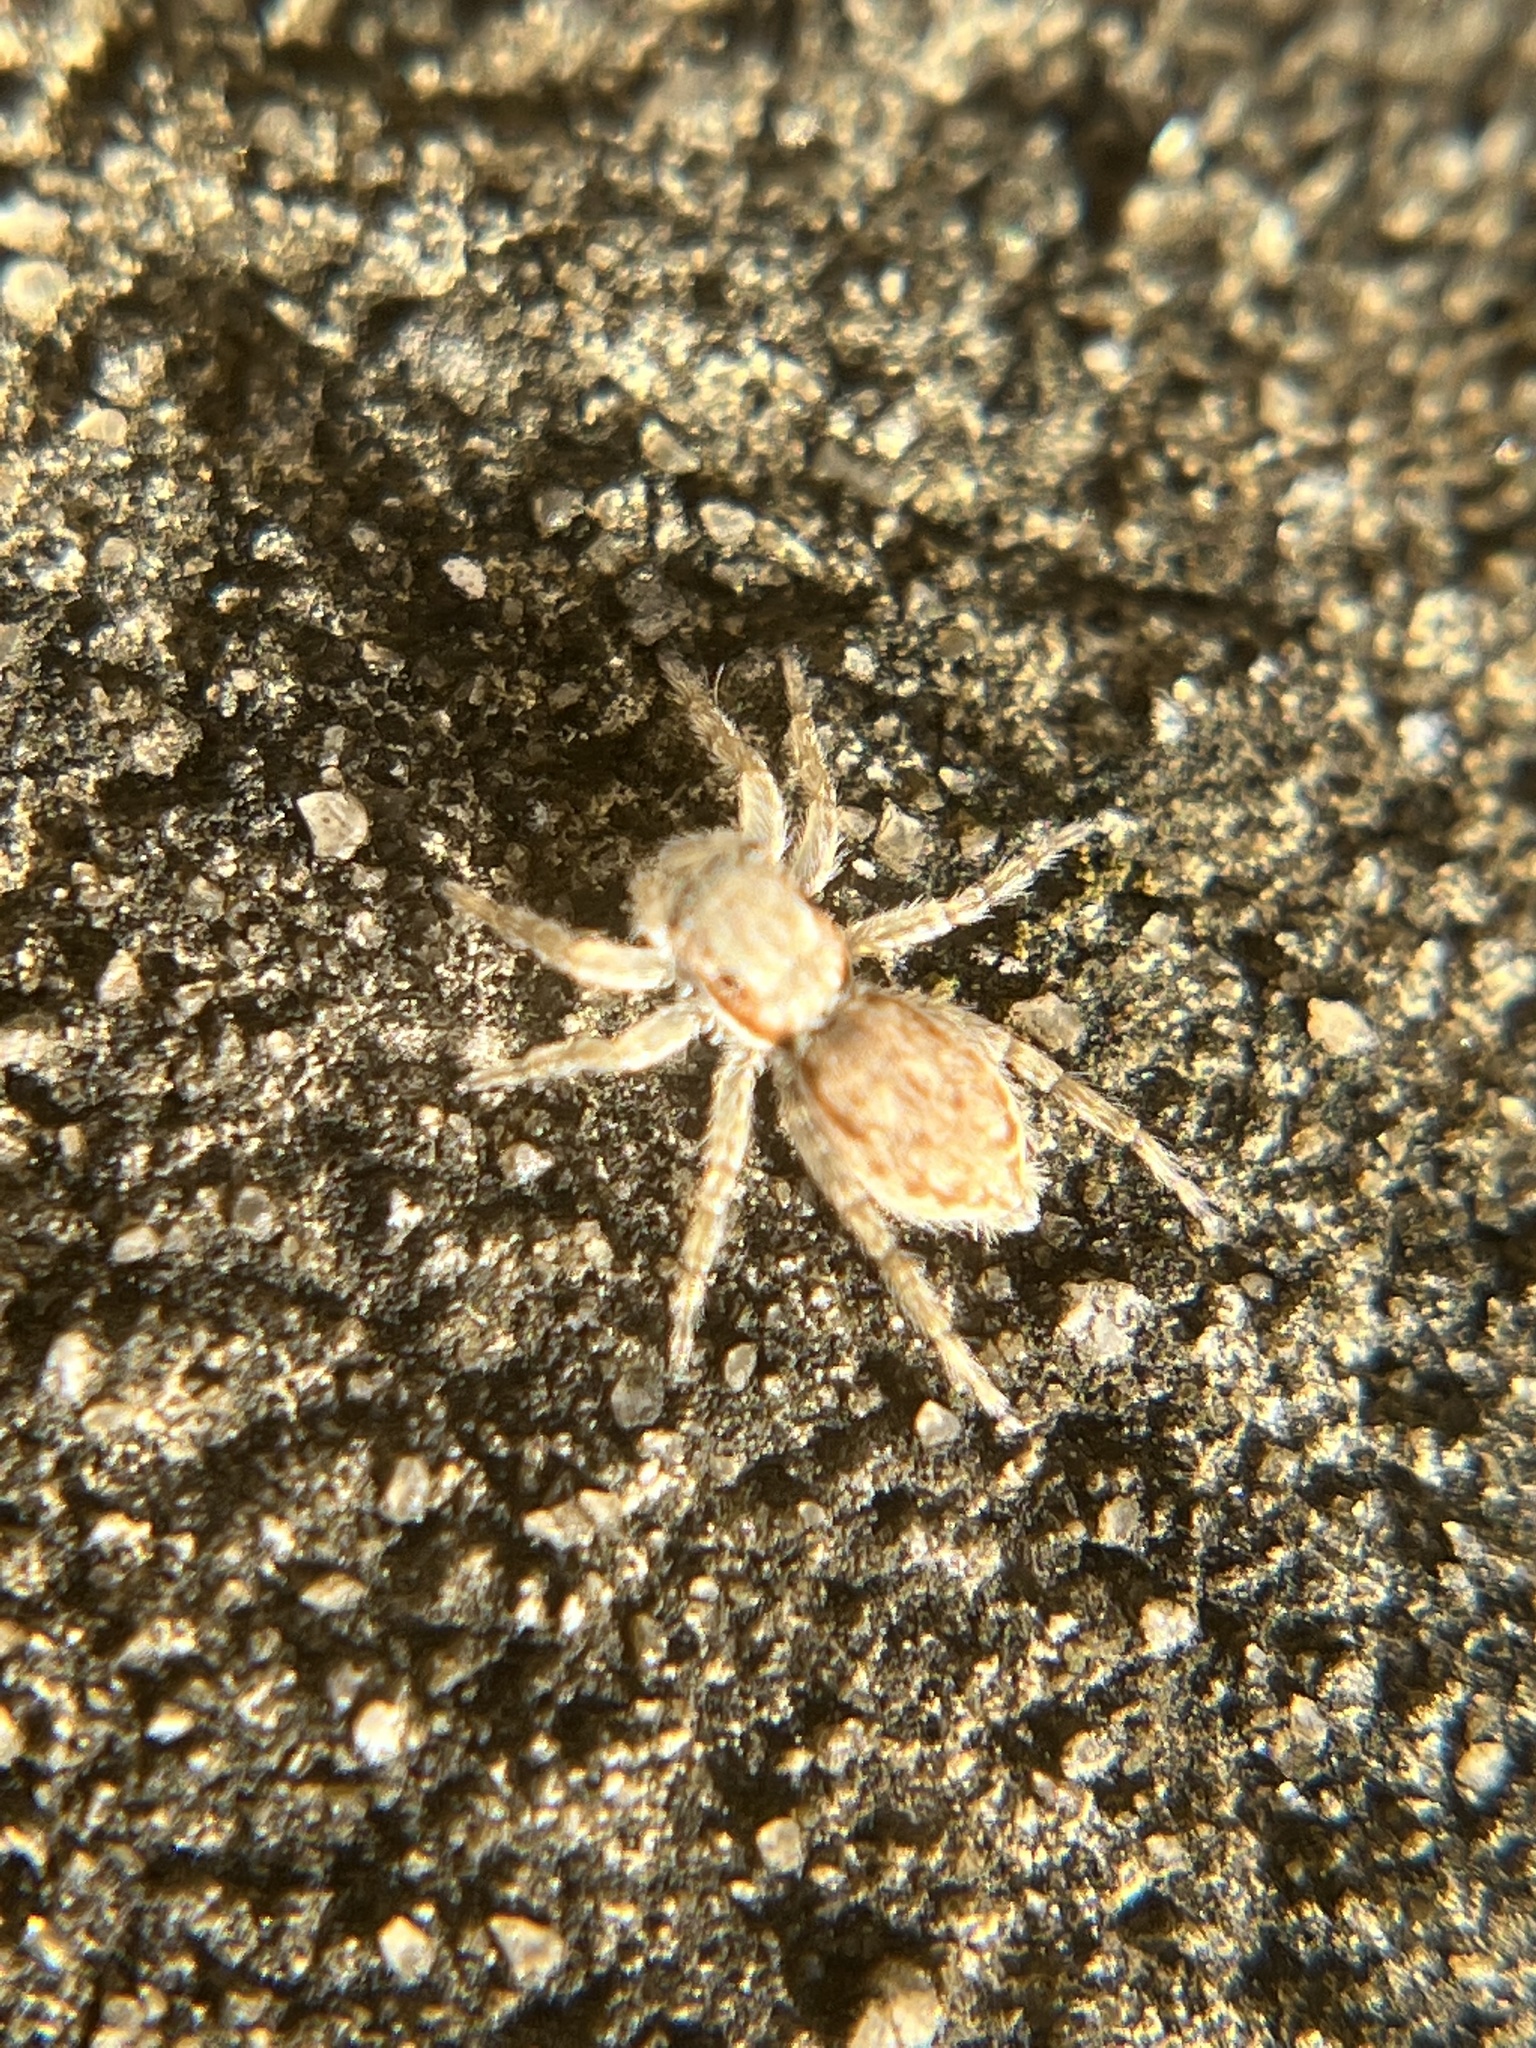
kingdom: Animalia
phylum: Arthropoda
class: Arachnida
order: Araneae
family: Salticidae
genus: Menemerus
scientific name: Menemerus bivittatus
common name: Gray wall jumper
